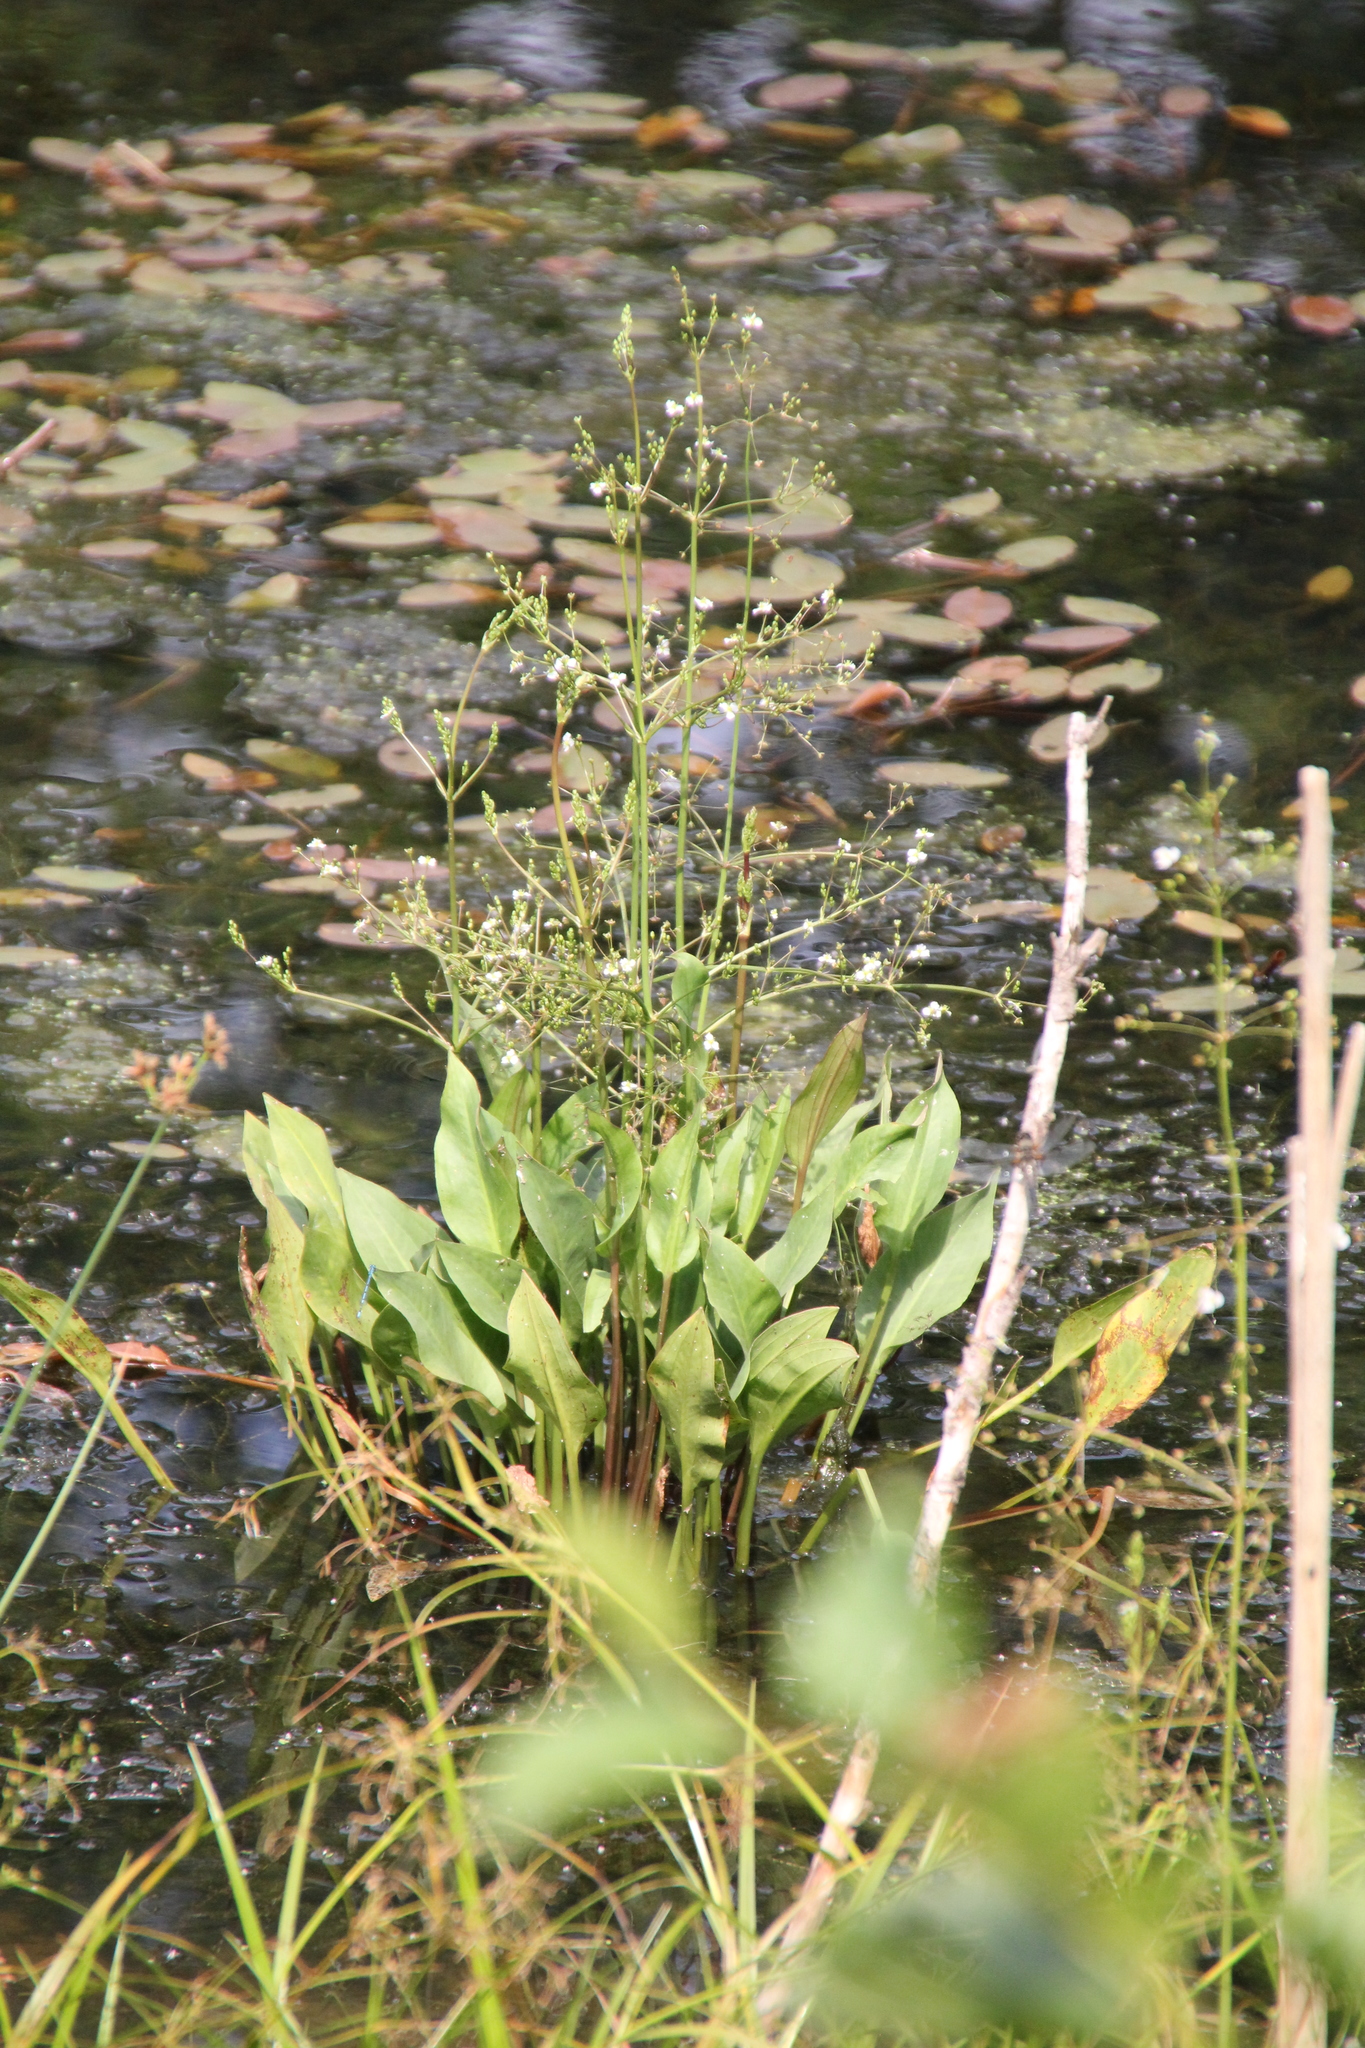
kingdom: Plantae
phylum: Tracheophyta
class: Liliopsida
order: Alismatales
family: Alismataceae
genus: Alisma
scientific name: Alisma plantago-aquatica
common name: Water-plantain
